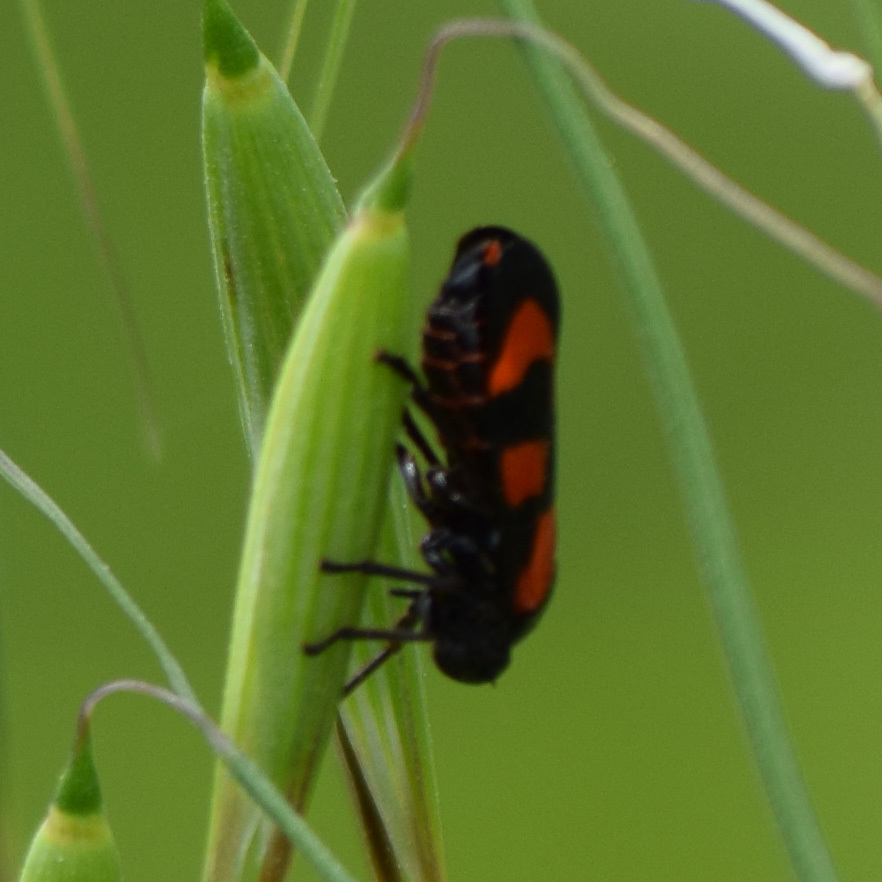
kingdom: Animalia
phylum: Arthropoda
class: Insecta
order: Hemiptera
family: Cercopidae
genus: Cercopis
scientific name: Cercopis vulnerata
